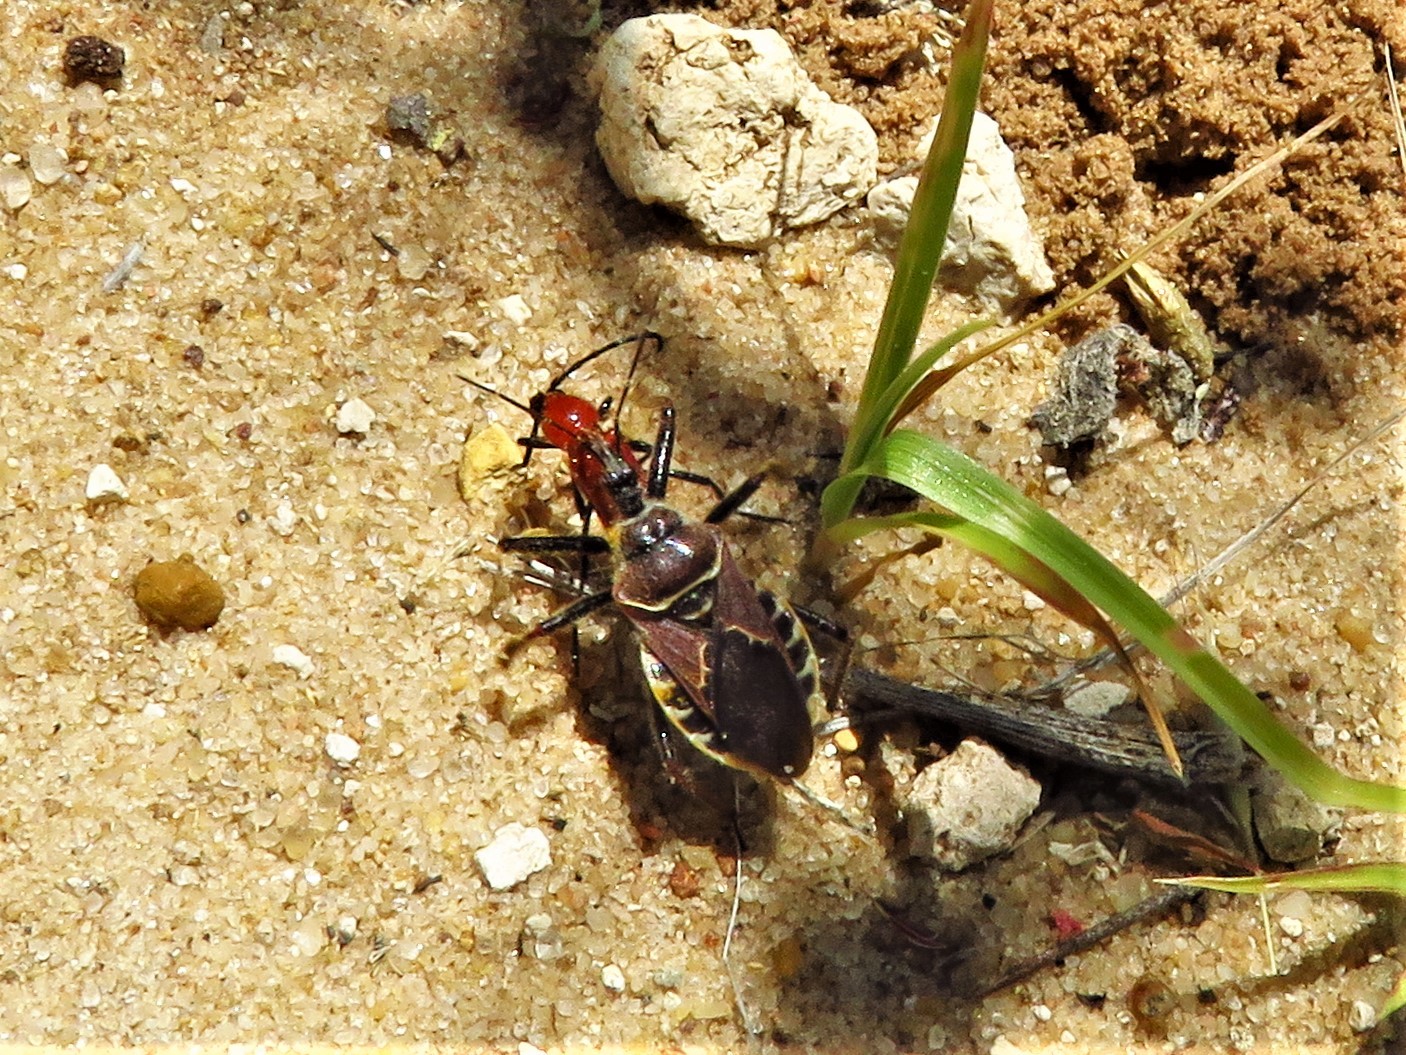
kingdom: Animalia
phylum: Arthropoda
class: Insecta
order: Hemiptera
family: Reduviidae
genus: Apiomerus
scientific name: Apiomerus spissipes
